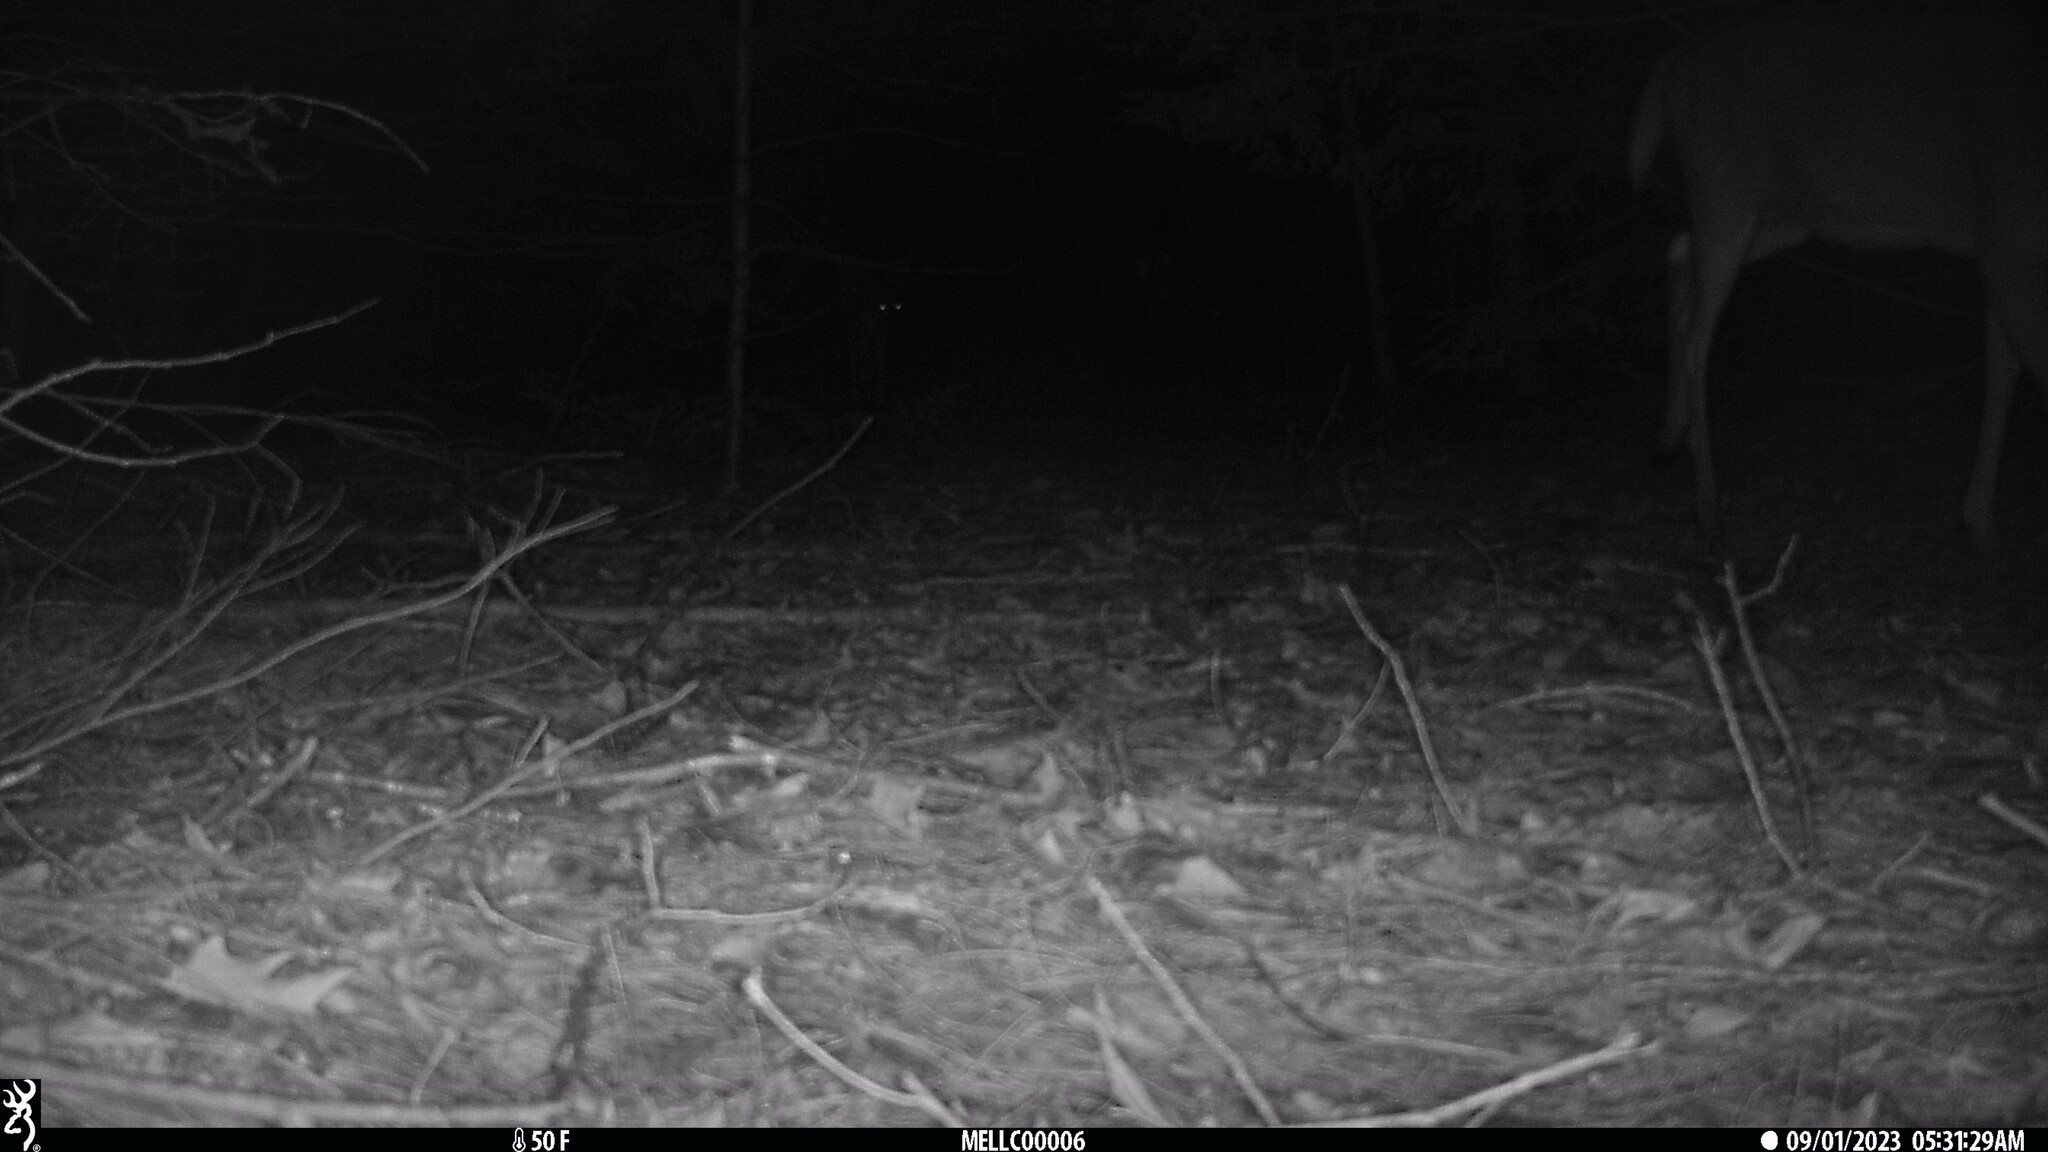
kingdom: Animalia
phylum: Chordata
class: Mammalia
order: Artiodactyla
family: Cervidae
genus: Odocoileus
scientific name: Odocoileus virginianus
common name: White-tailed deer
